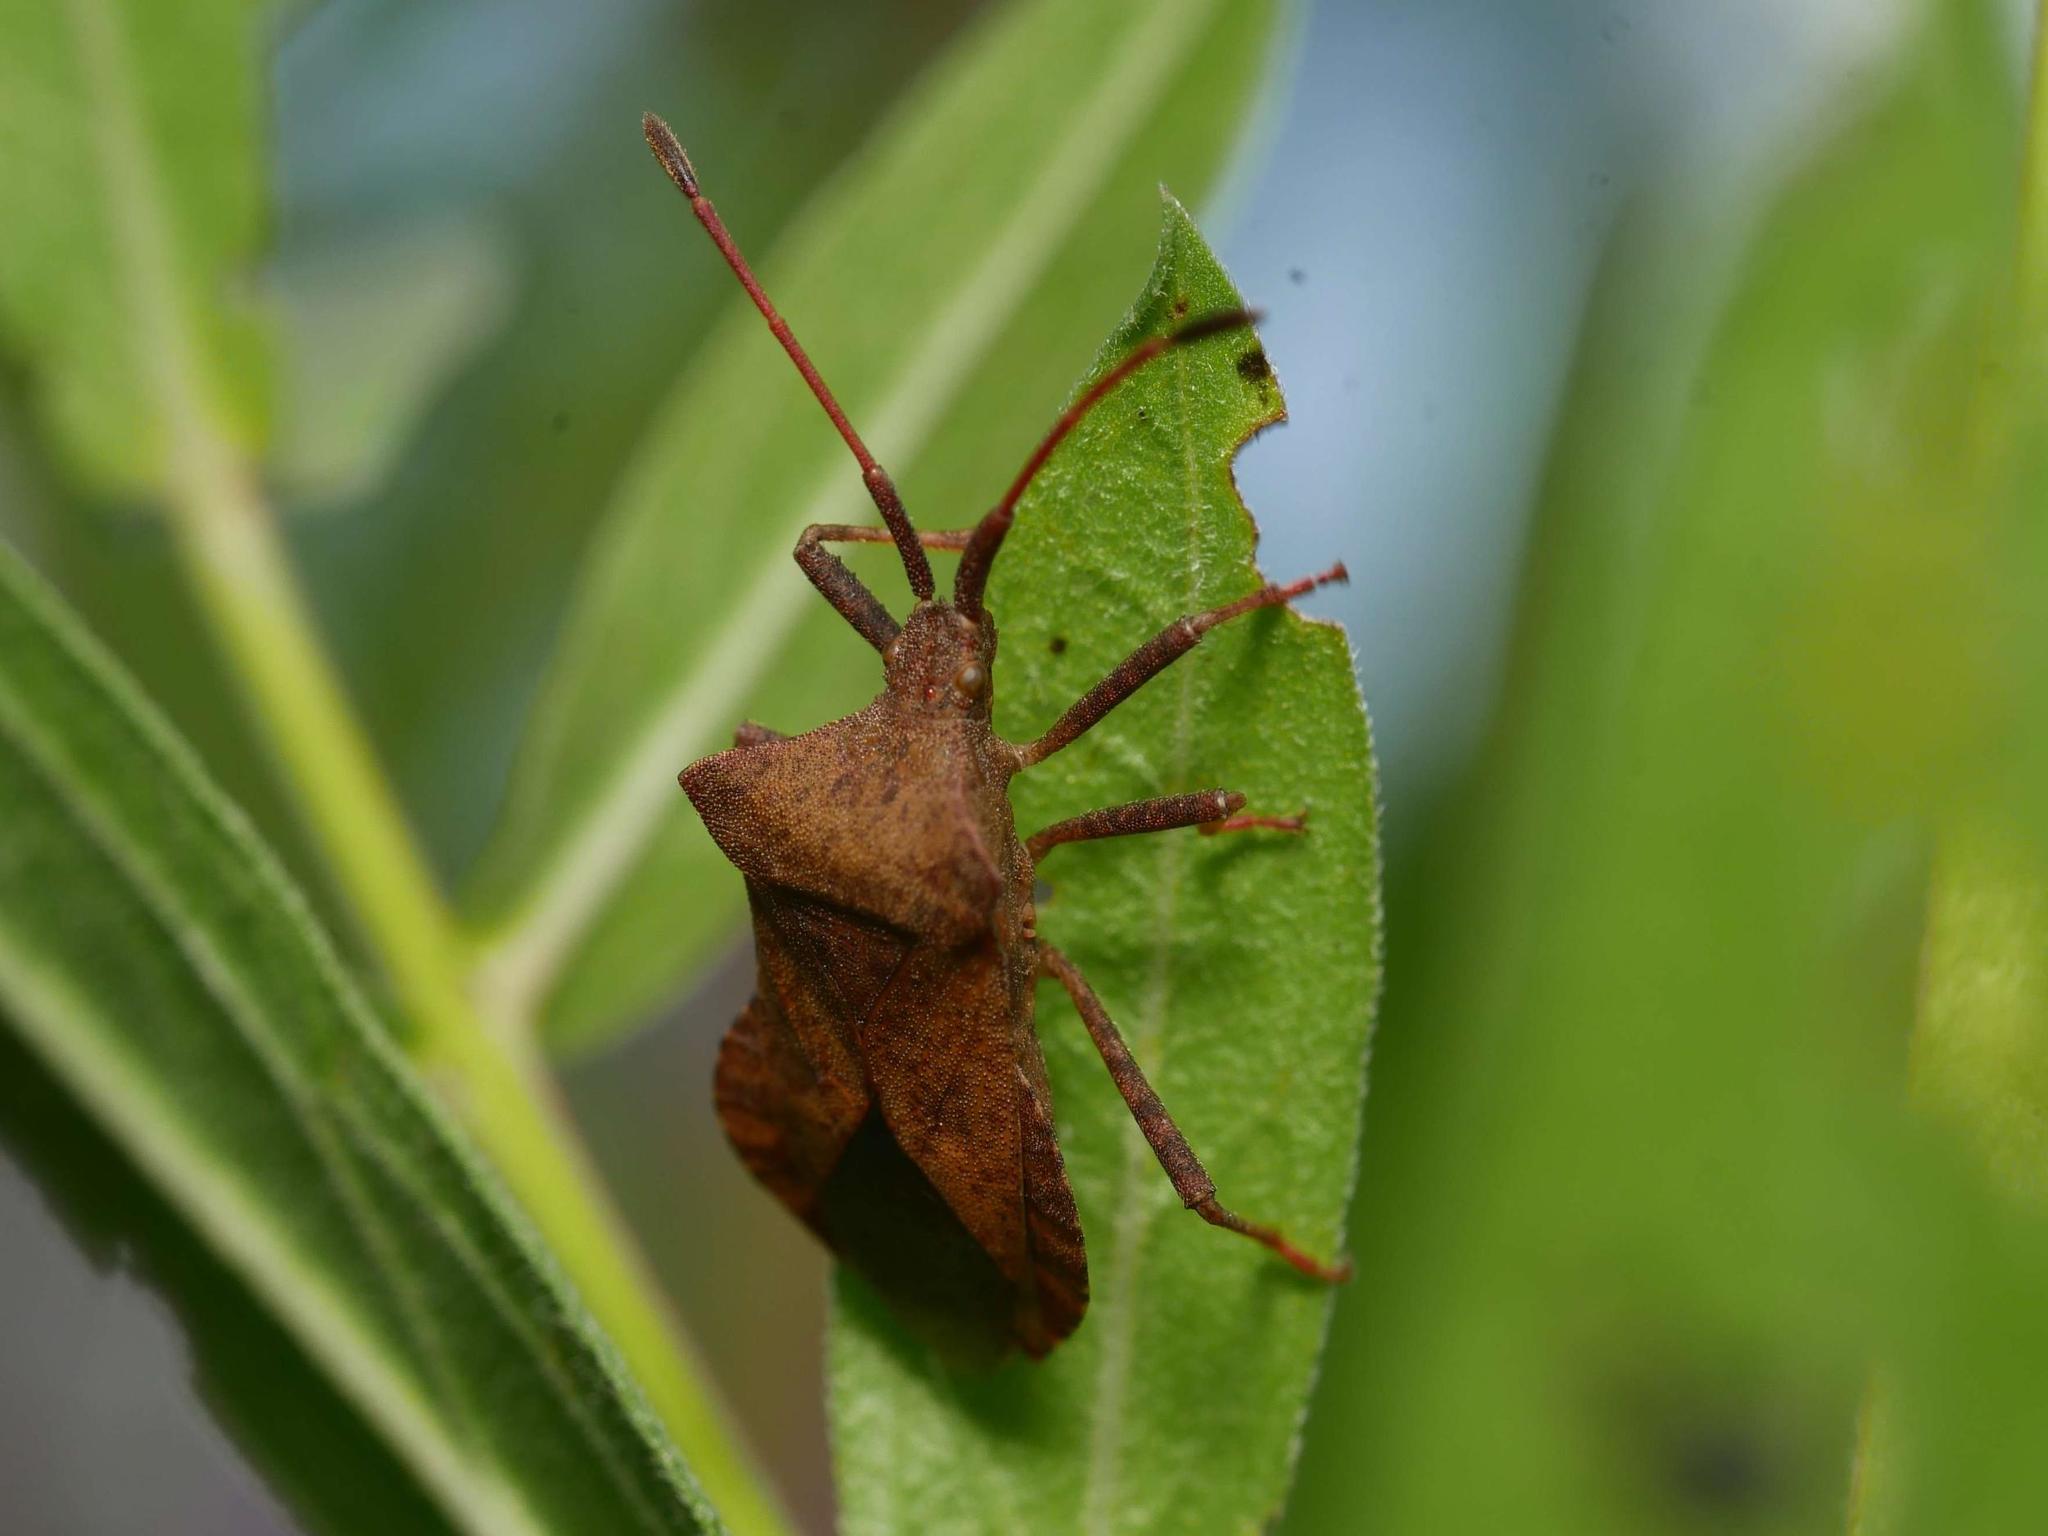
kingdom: Animalia
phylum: Arthropoda
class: Insecta
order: Hemiptera
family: Coreidae
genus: Coreus
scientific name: Coreus marginatus
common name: Dock bug
